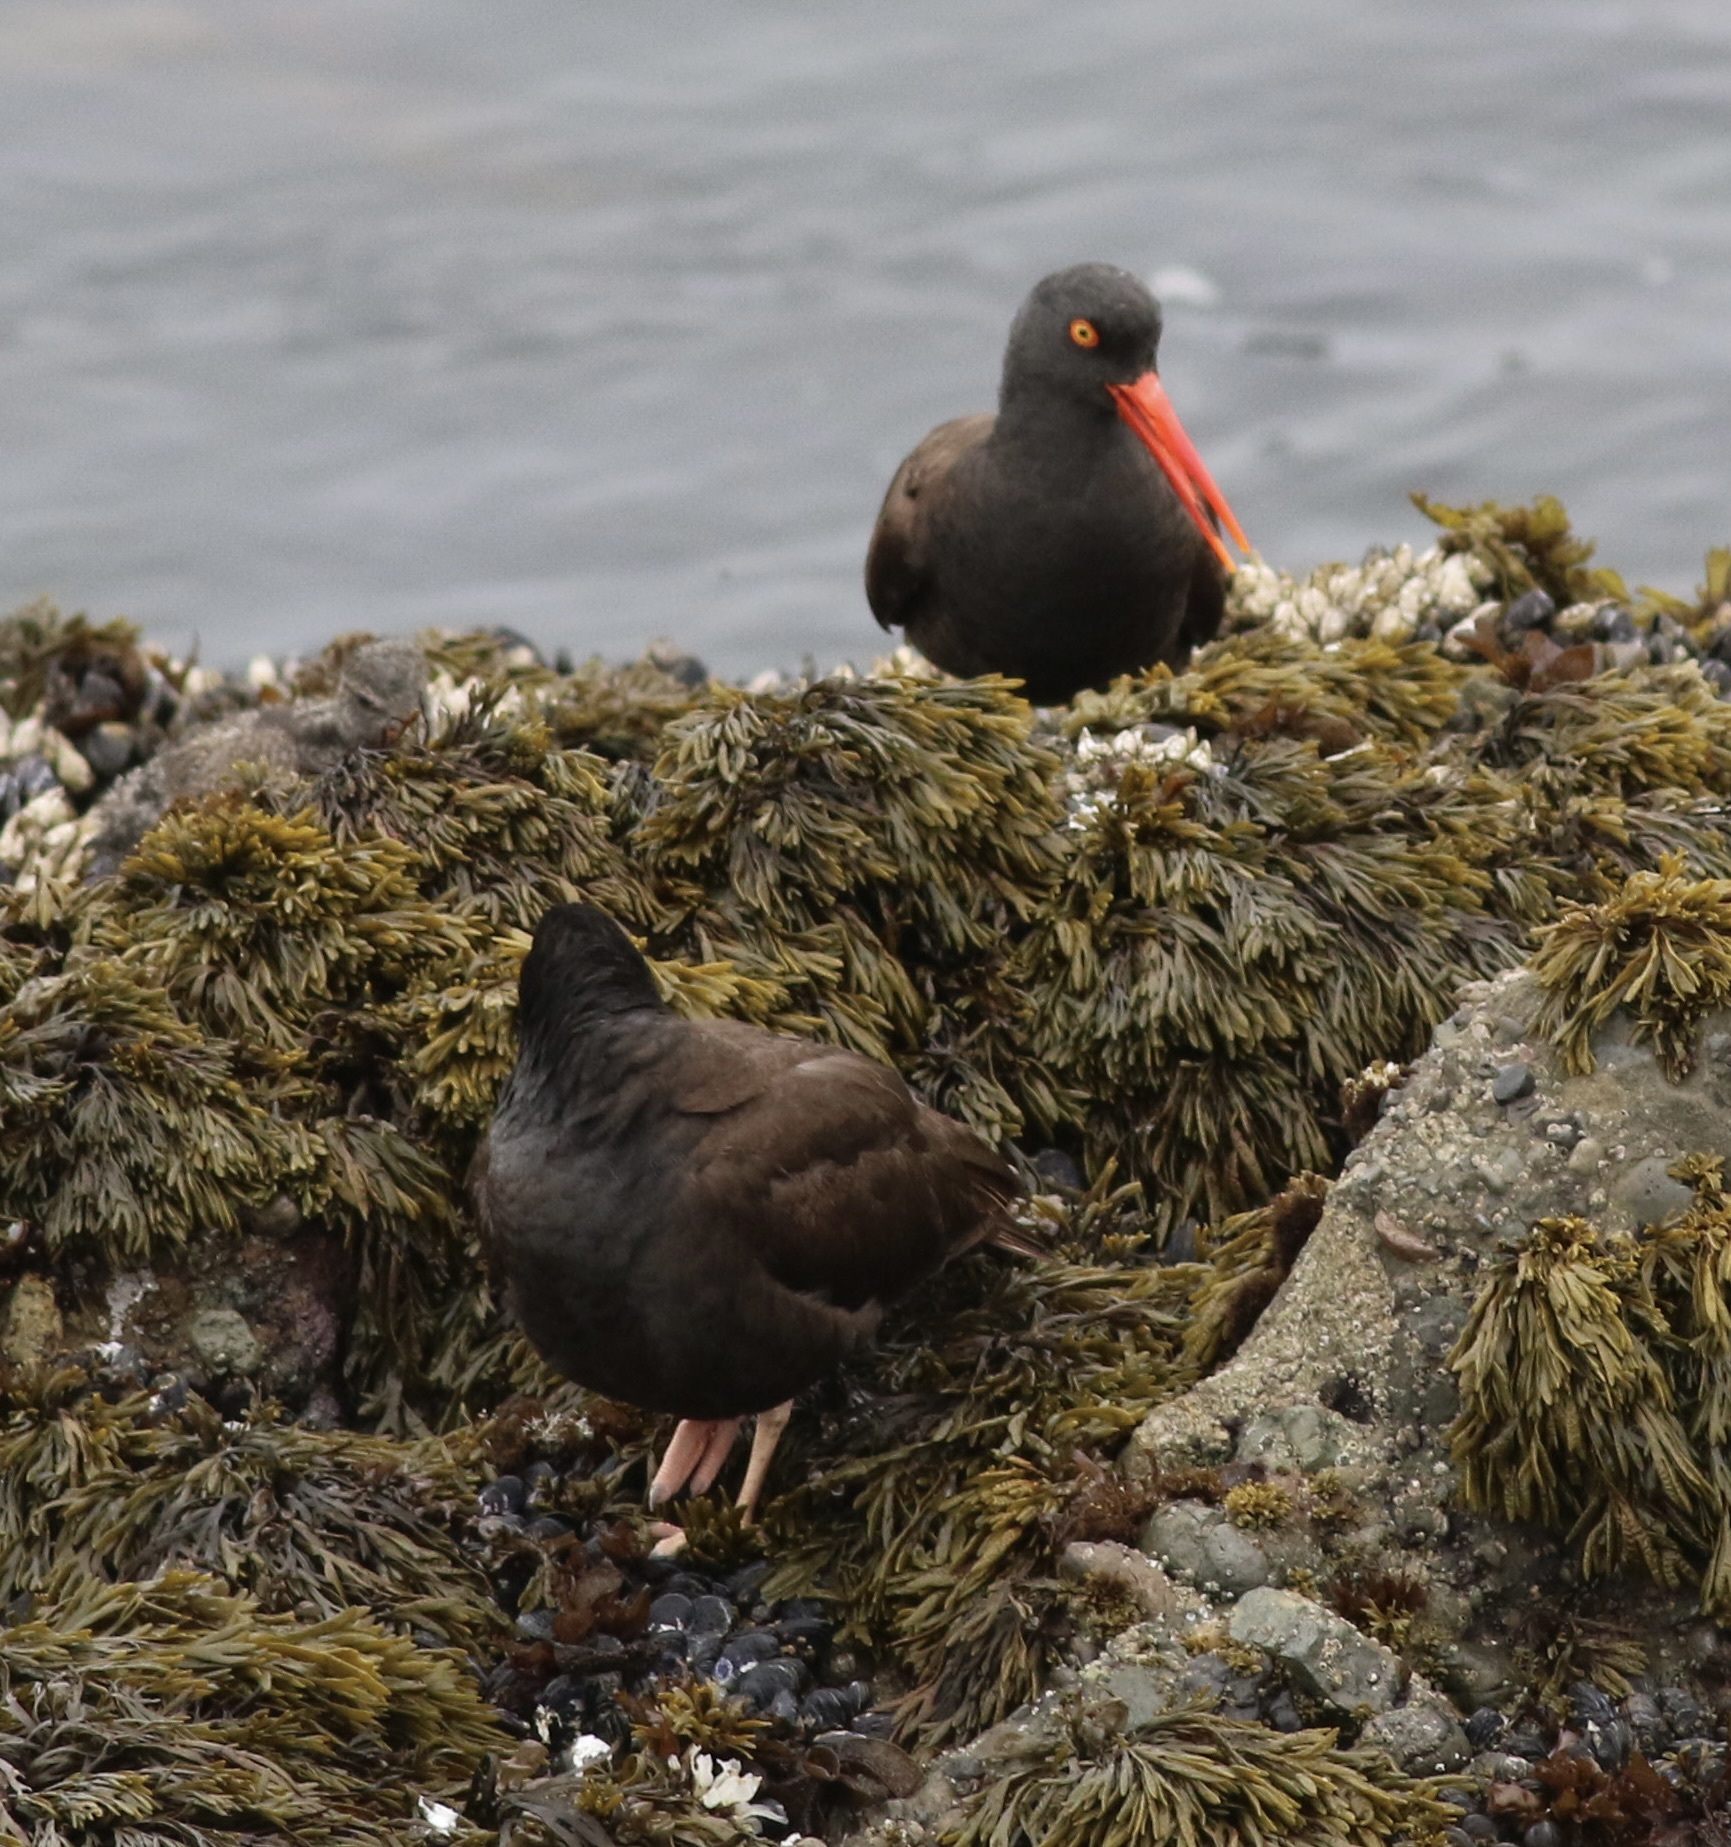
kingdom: Animalia
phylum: Chordata
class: Aves
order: Charadriiformes
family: Haematopodidae
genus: Haematopus
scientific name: Haematopus bachmani
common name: Black oystercatcher
